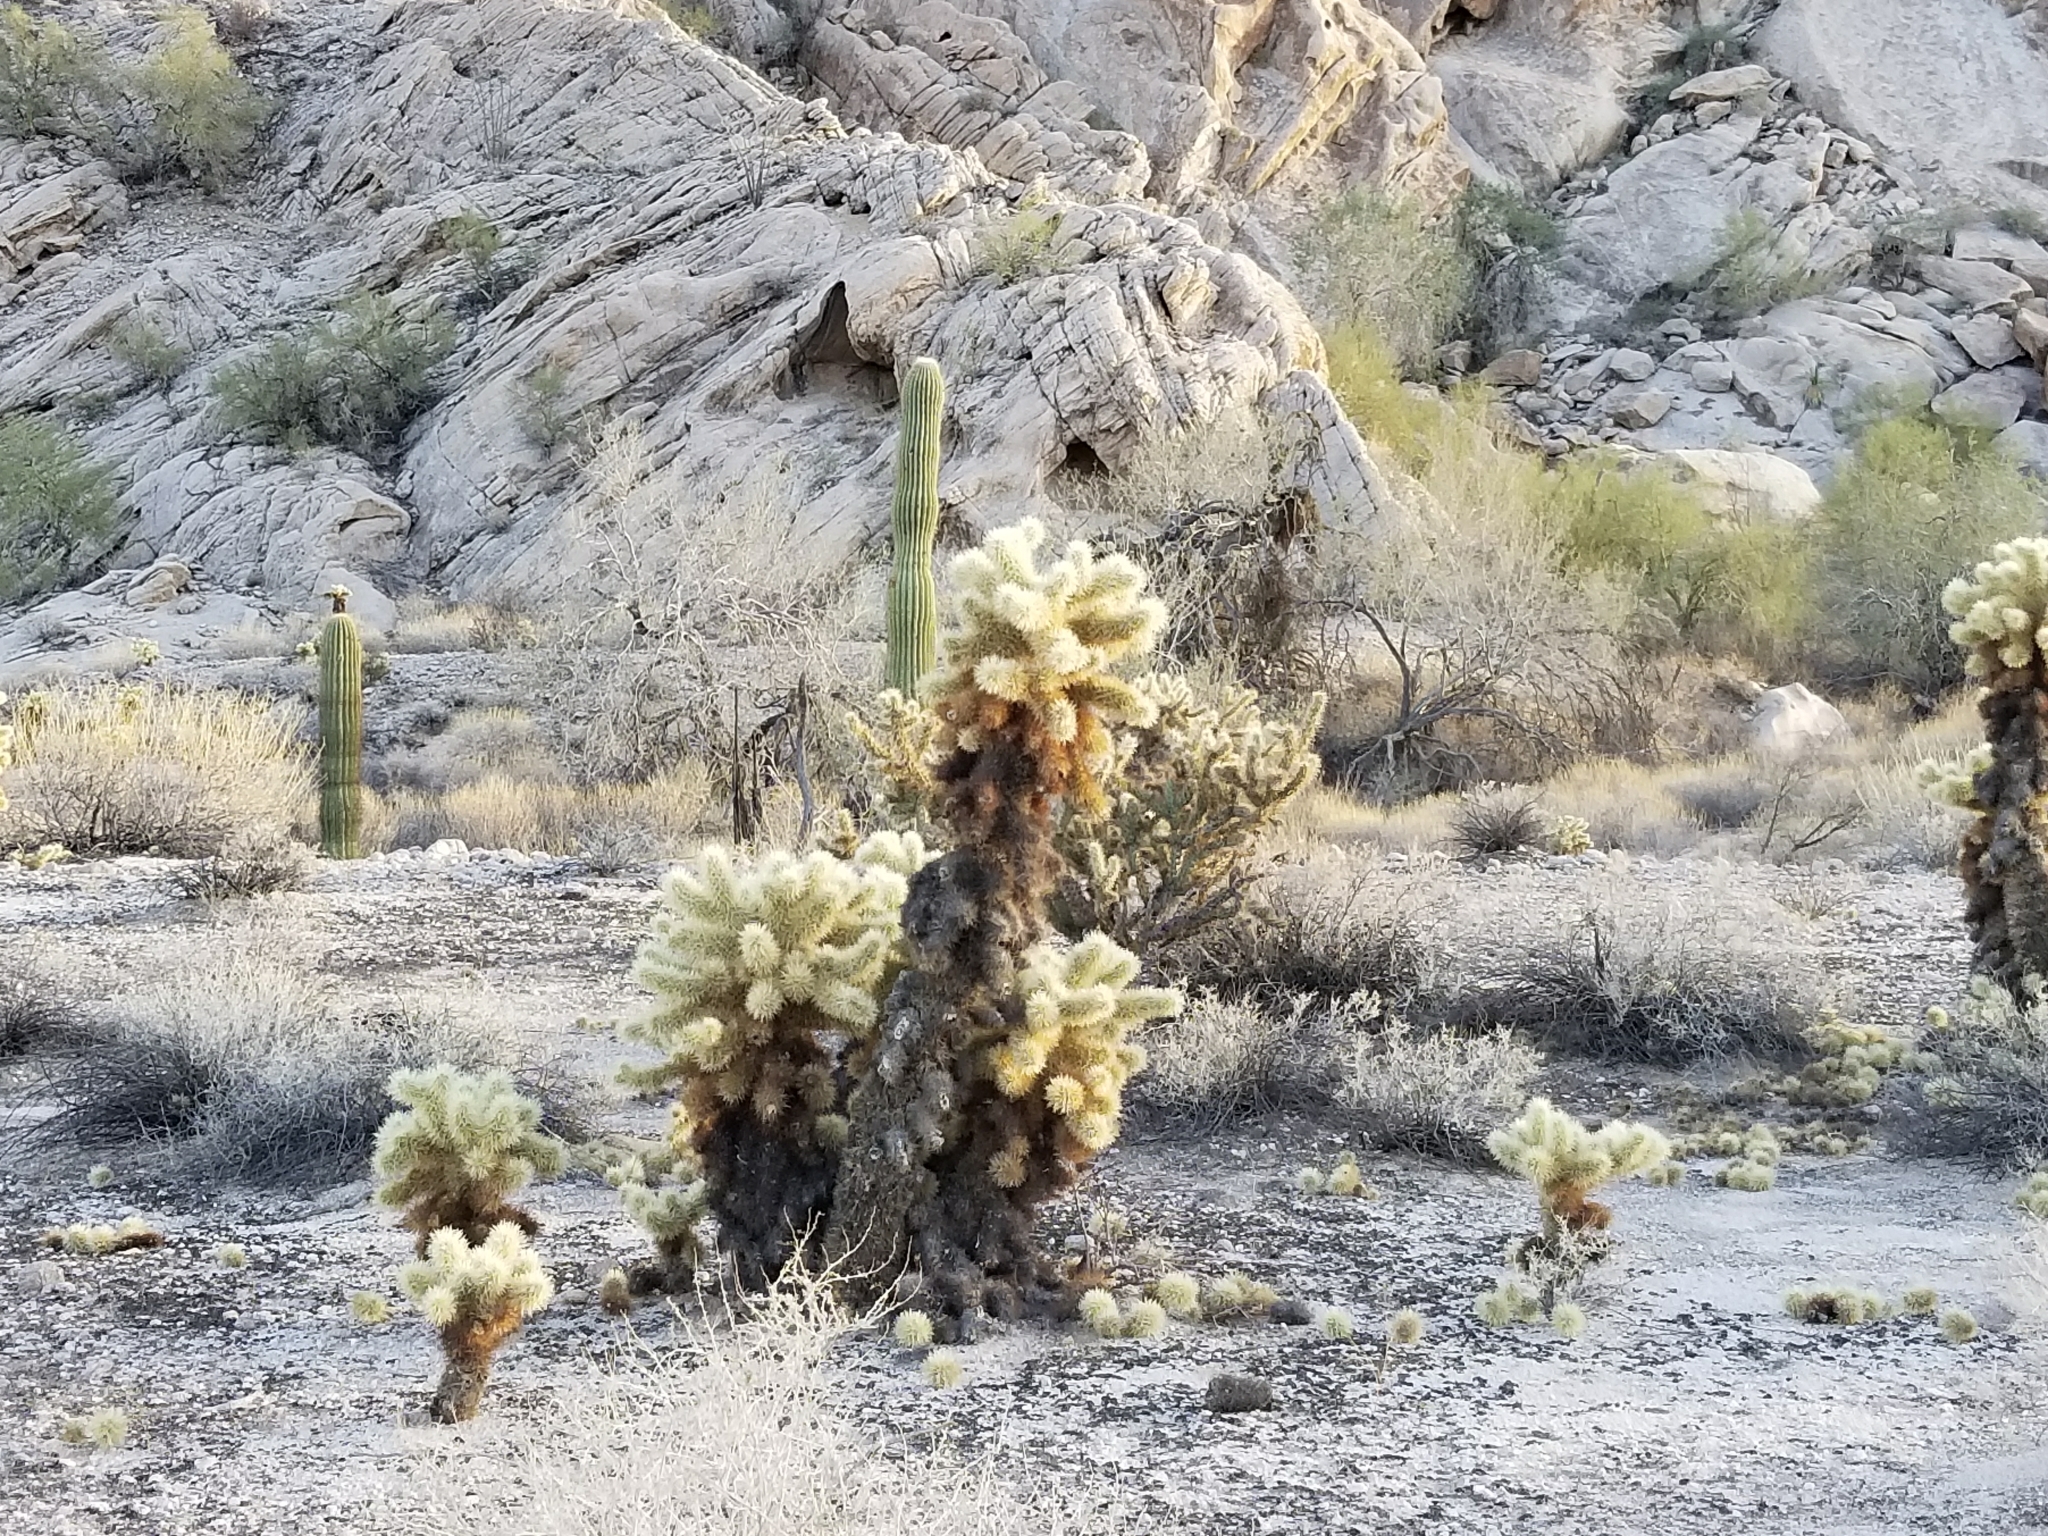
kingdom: Plantae
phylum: Tracheophyta
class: Magnoliopsida
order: Caryophyllales
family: Cactaceae
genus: Cylindropuntia
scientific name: Cylindropuntia fosbergii
